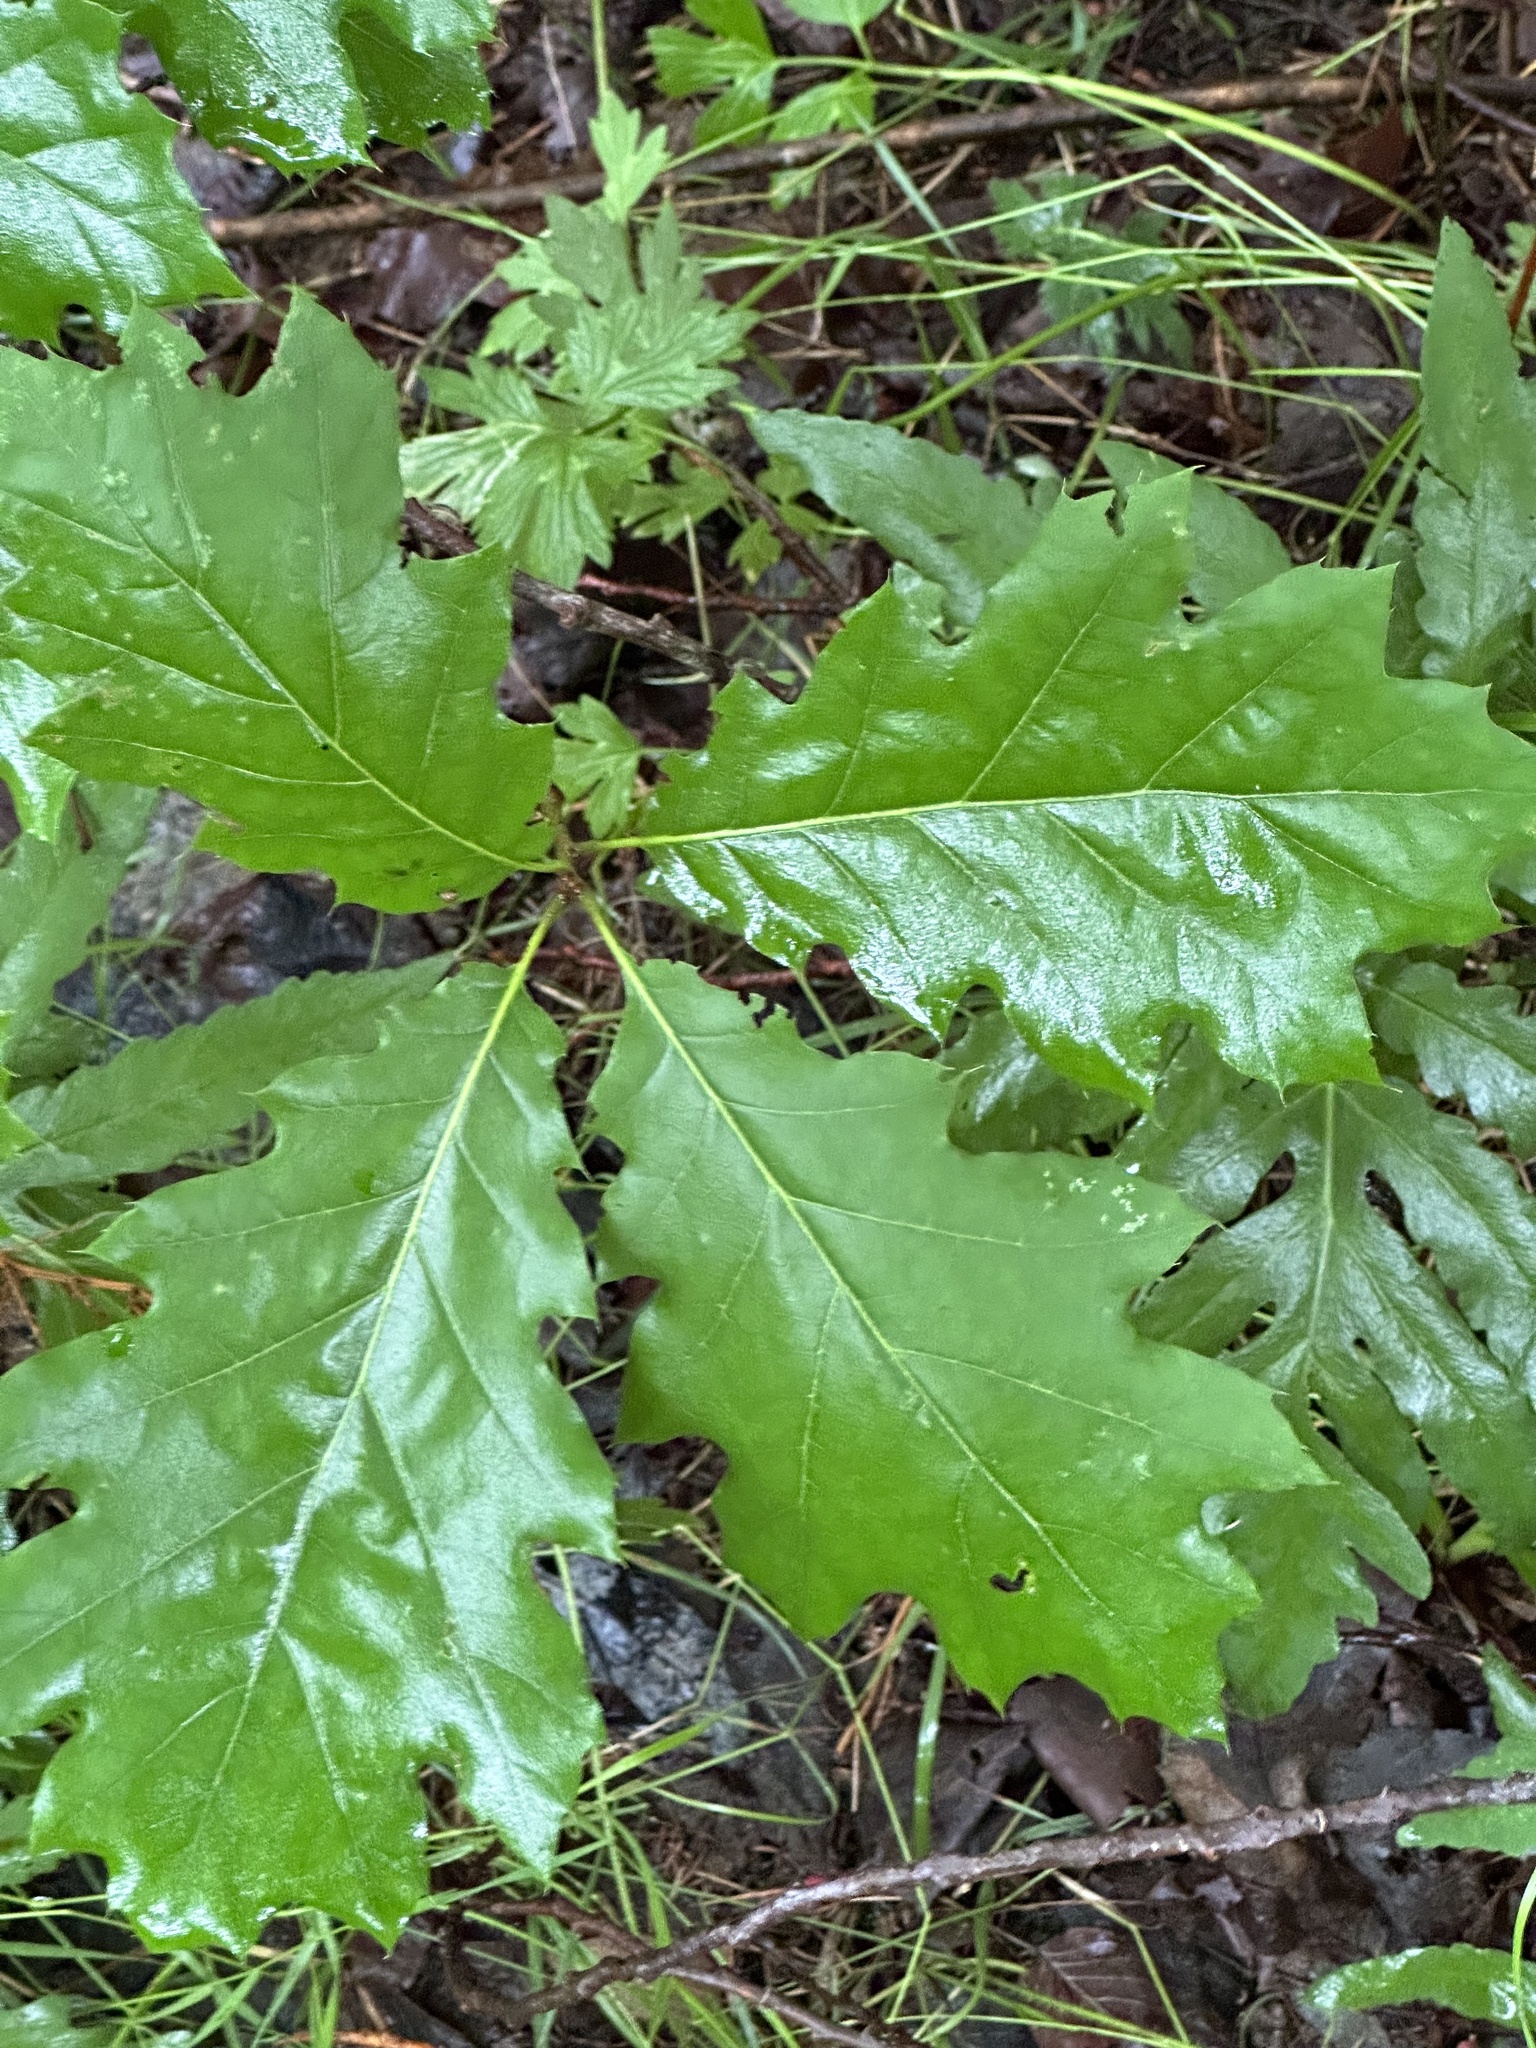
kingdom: Plantae
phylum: Tracheophyta
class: Magnoliopsida
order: Fagales
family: Fagaceae
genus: Quercus
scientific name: Quercus rubra
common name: Red oak
